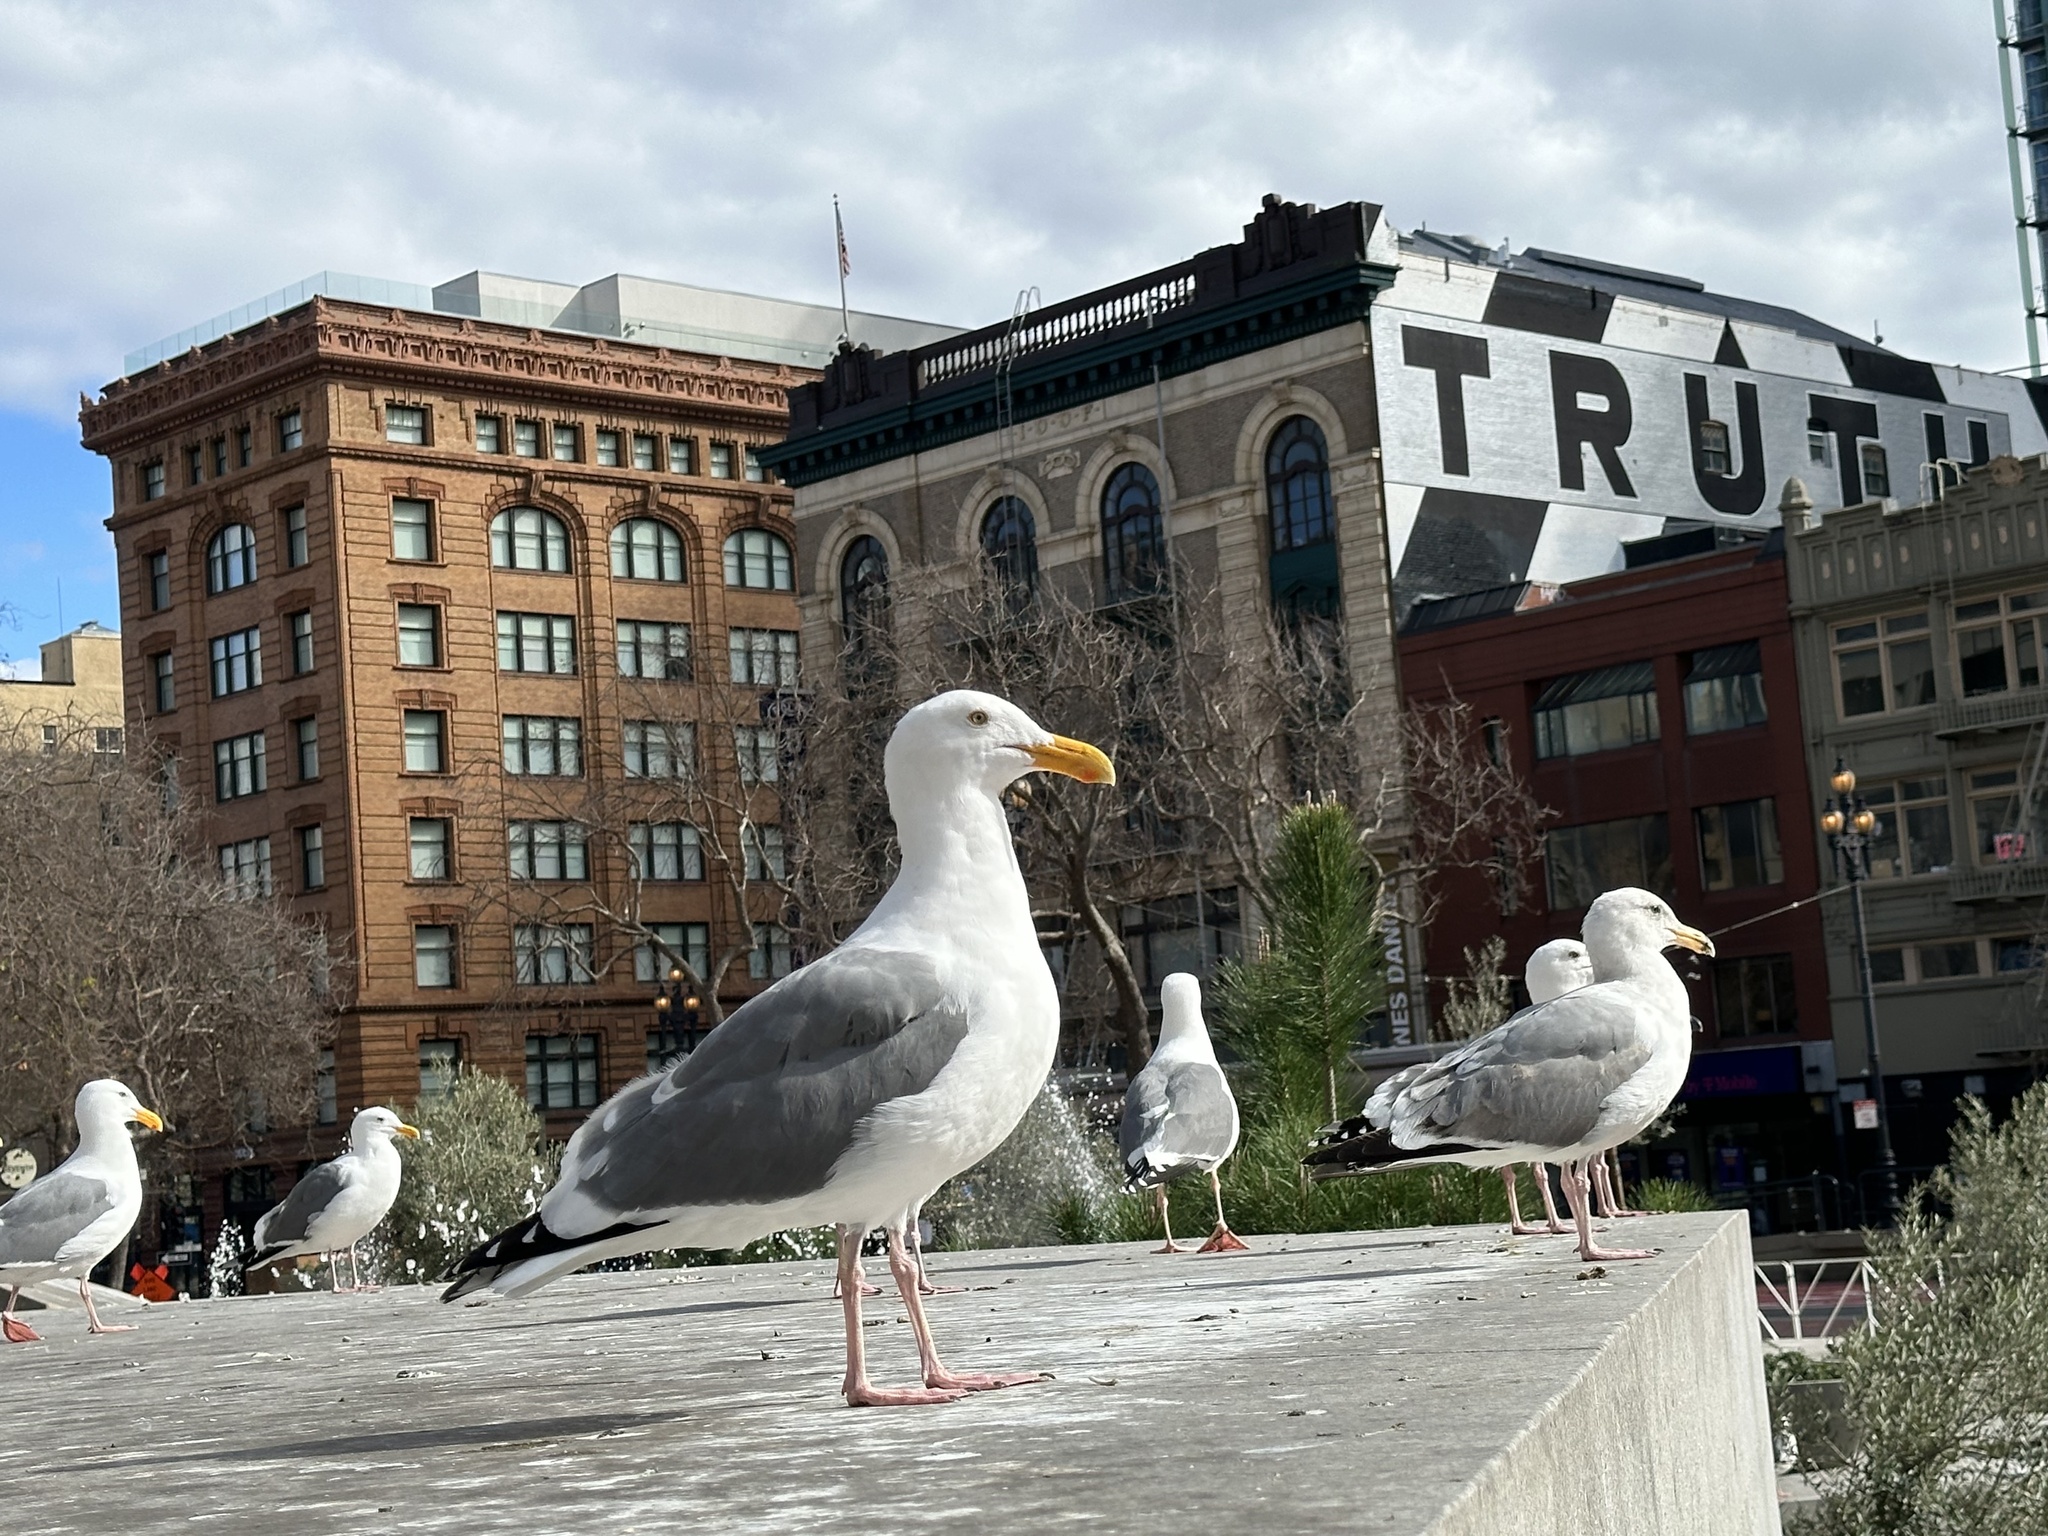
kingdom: Animalia
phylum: Chordata
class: Aves
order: Charadriiformes
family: Laridae
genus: Larus
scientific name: Larus occidentalis
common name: Western gull
